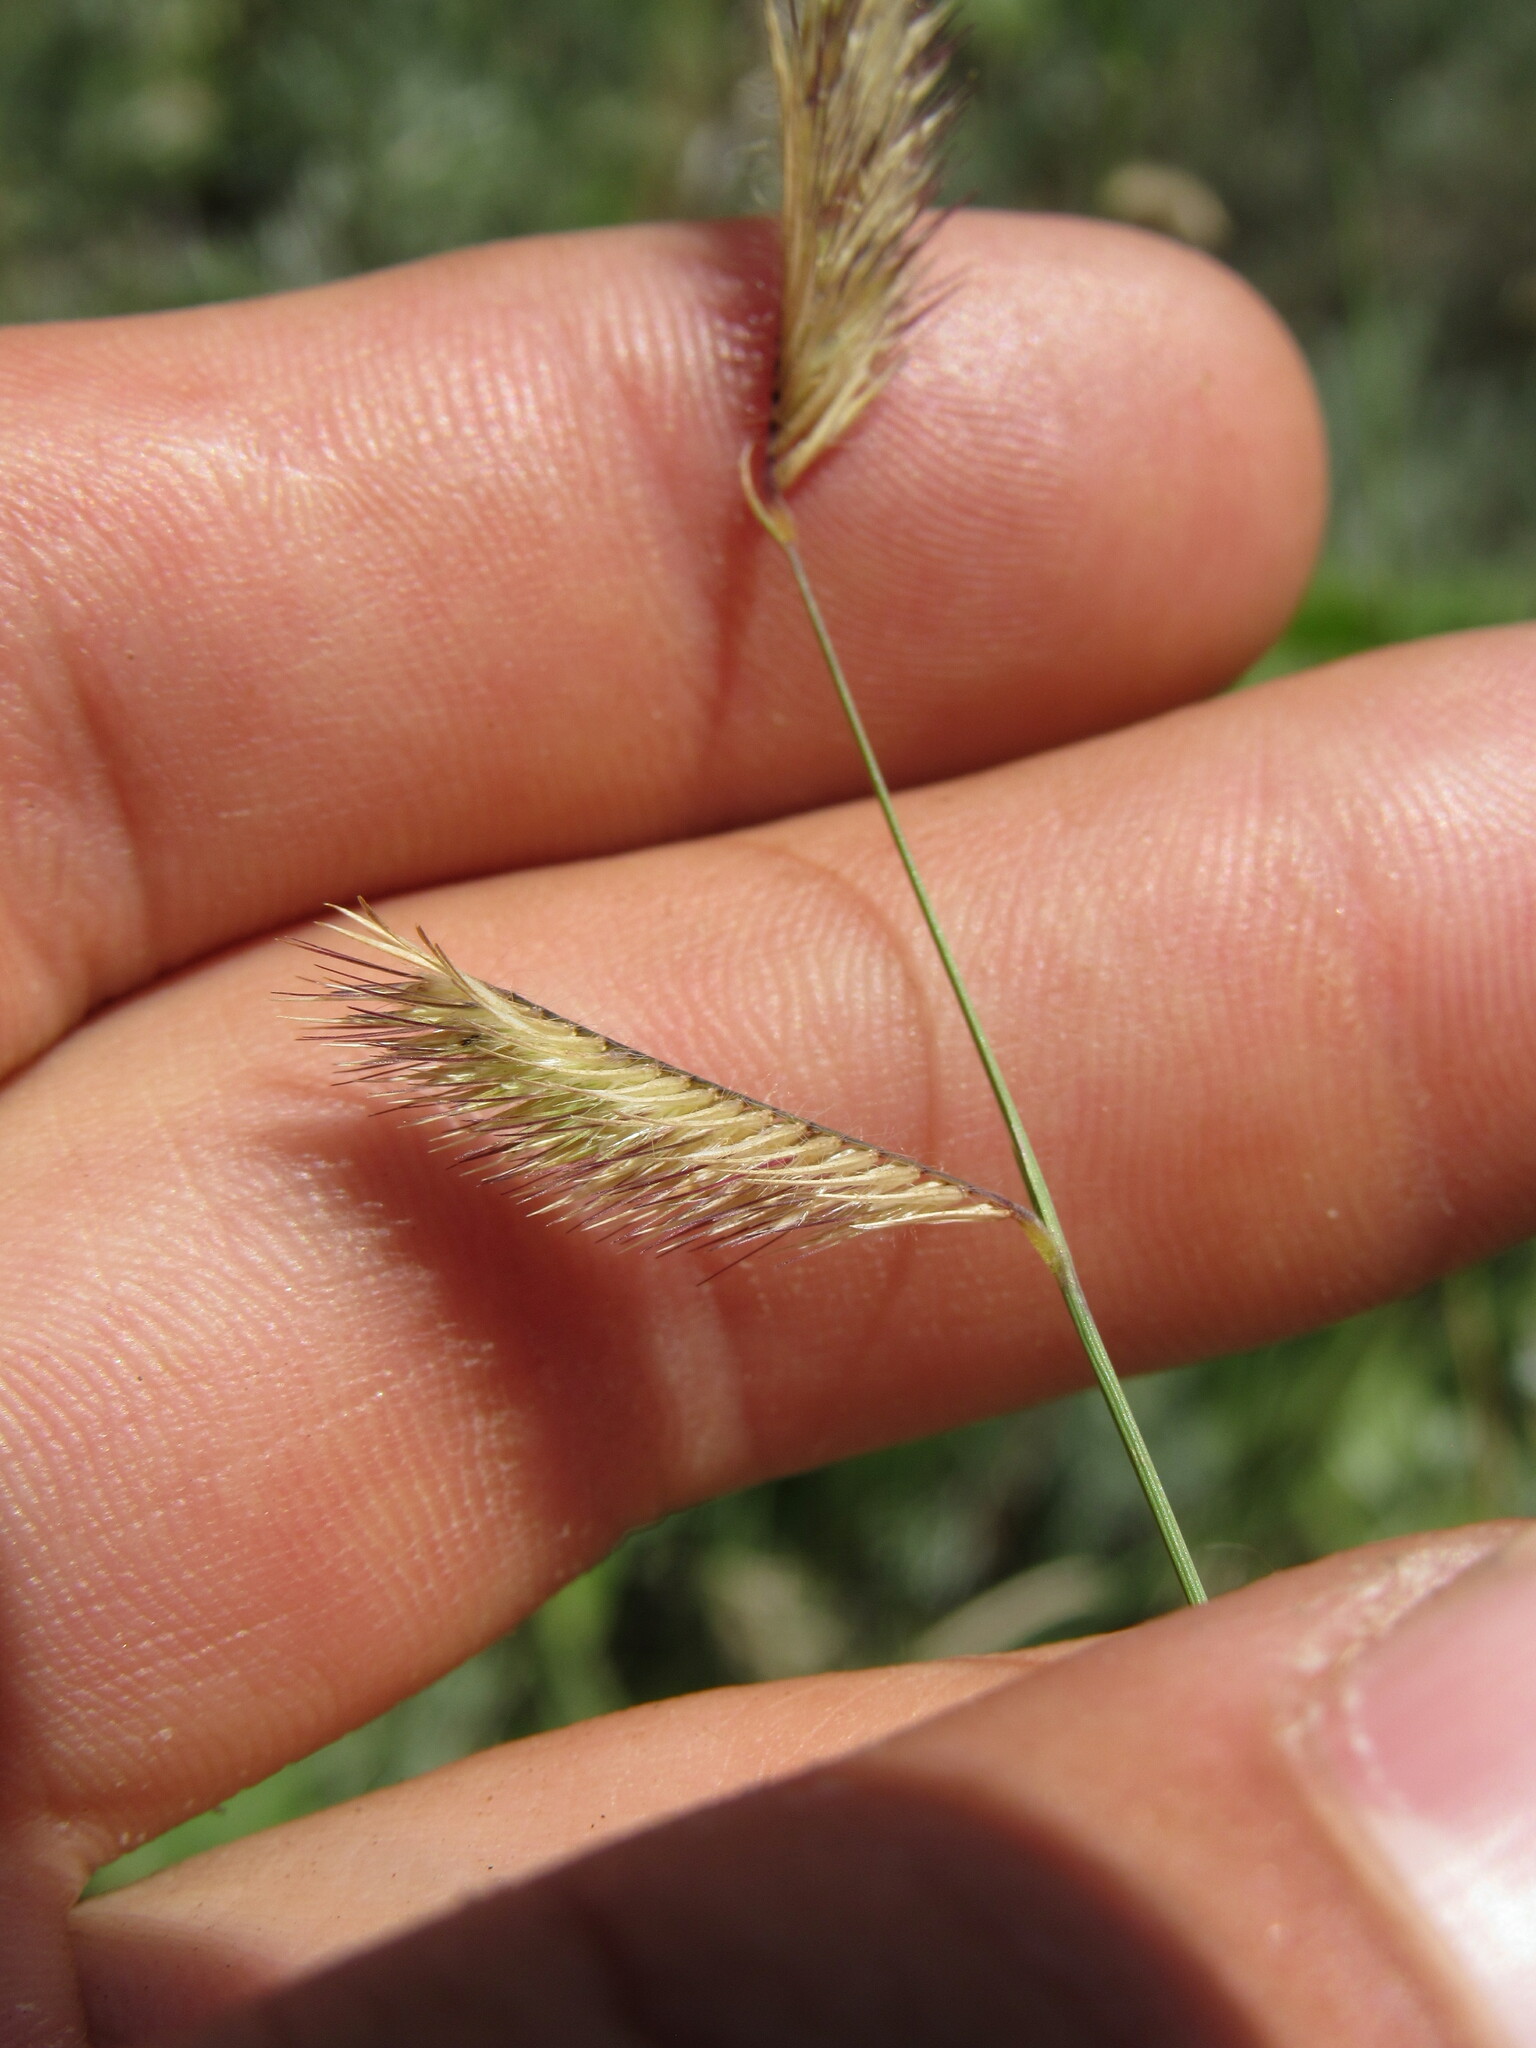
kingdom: Plantae
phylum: Tracheophyta
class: Liliopsida
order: Poales
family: Poaceae
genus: Bouteloua
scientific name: Bouteloua gracilis
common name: Blue grama
